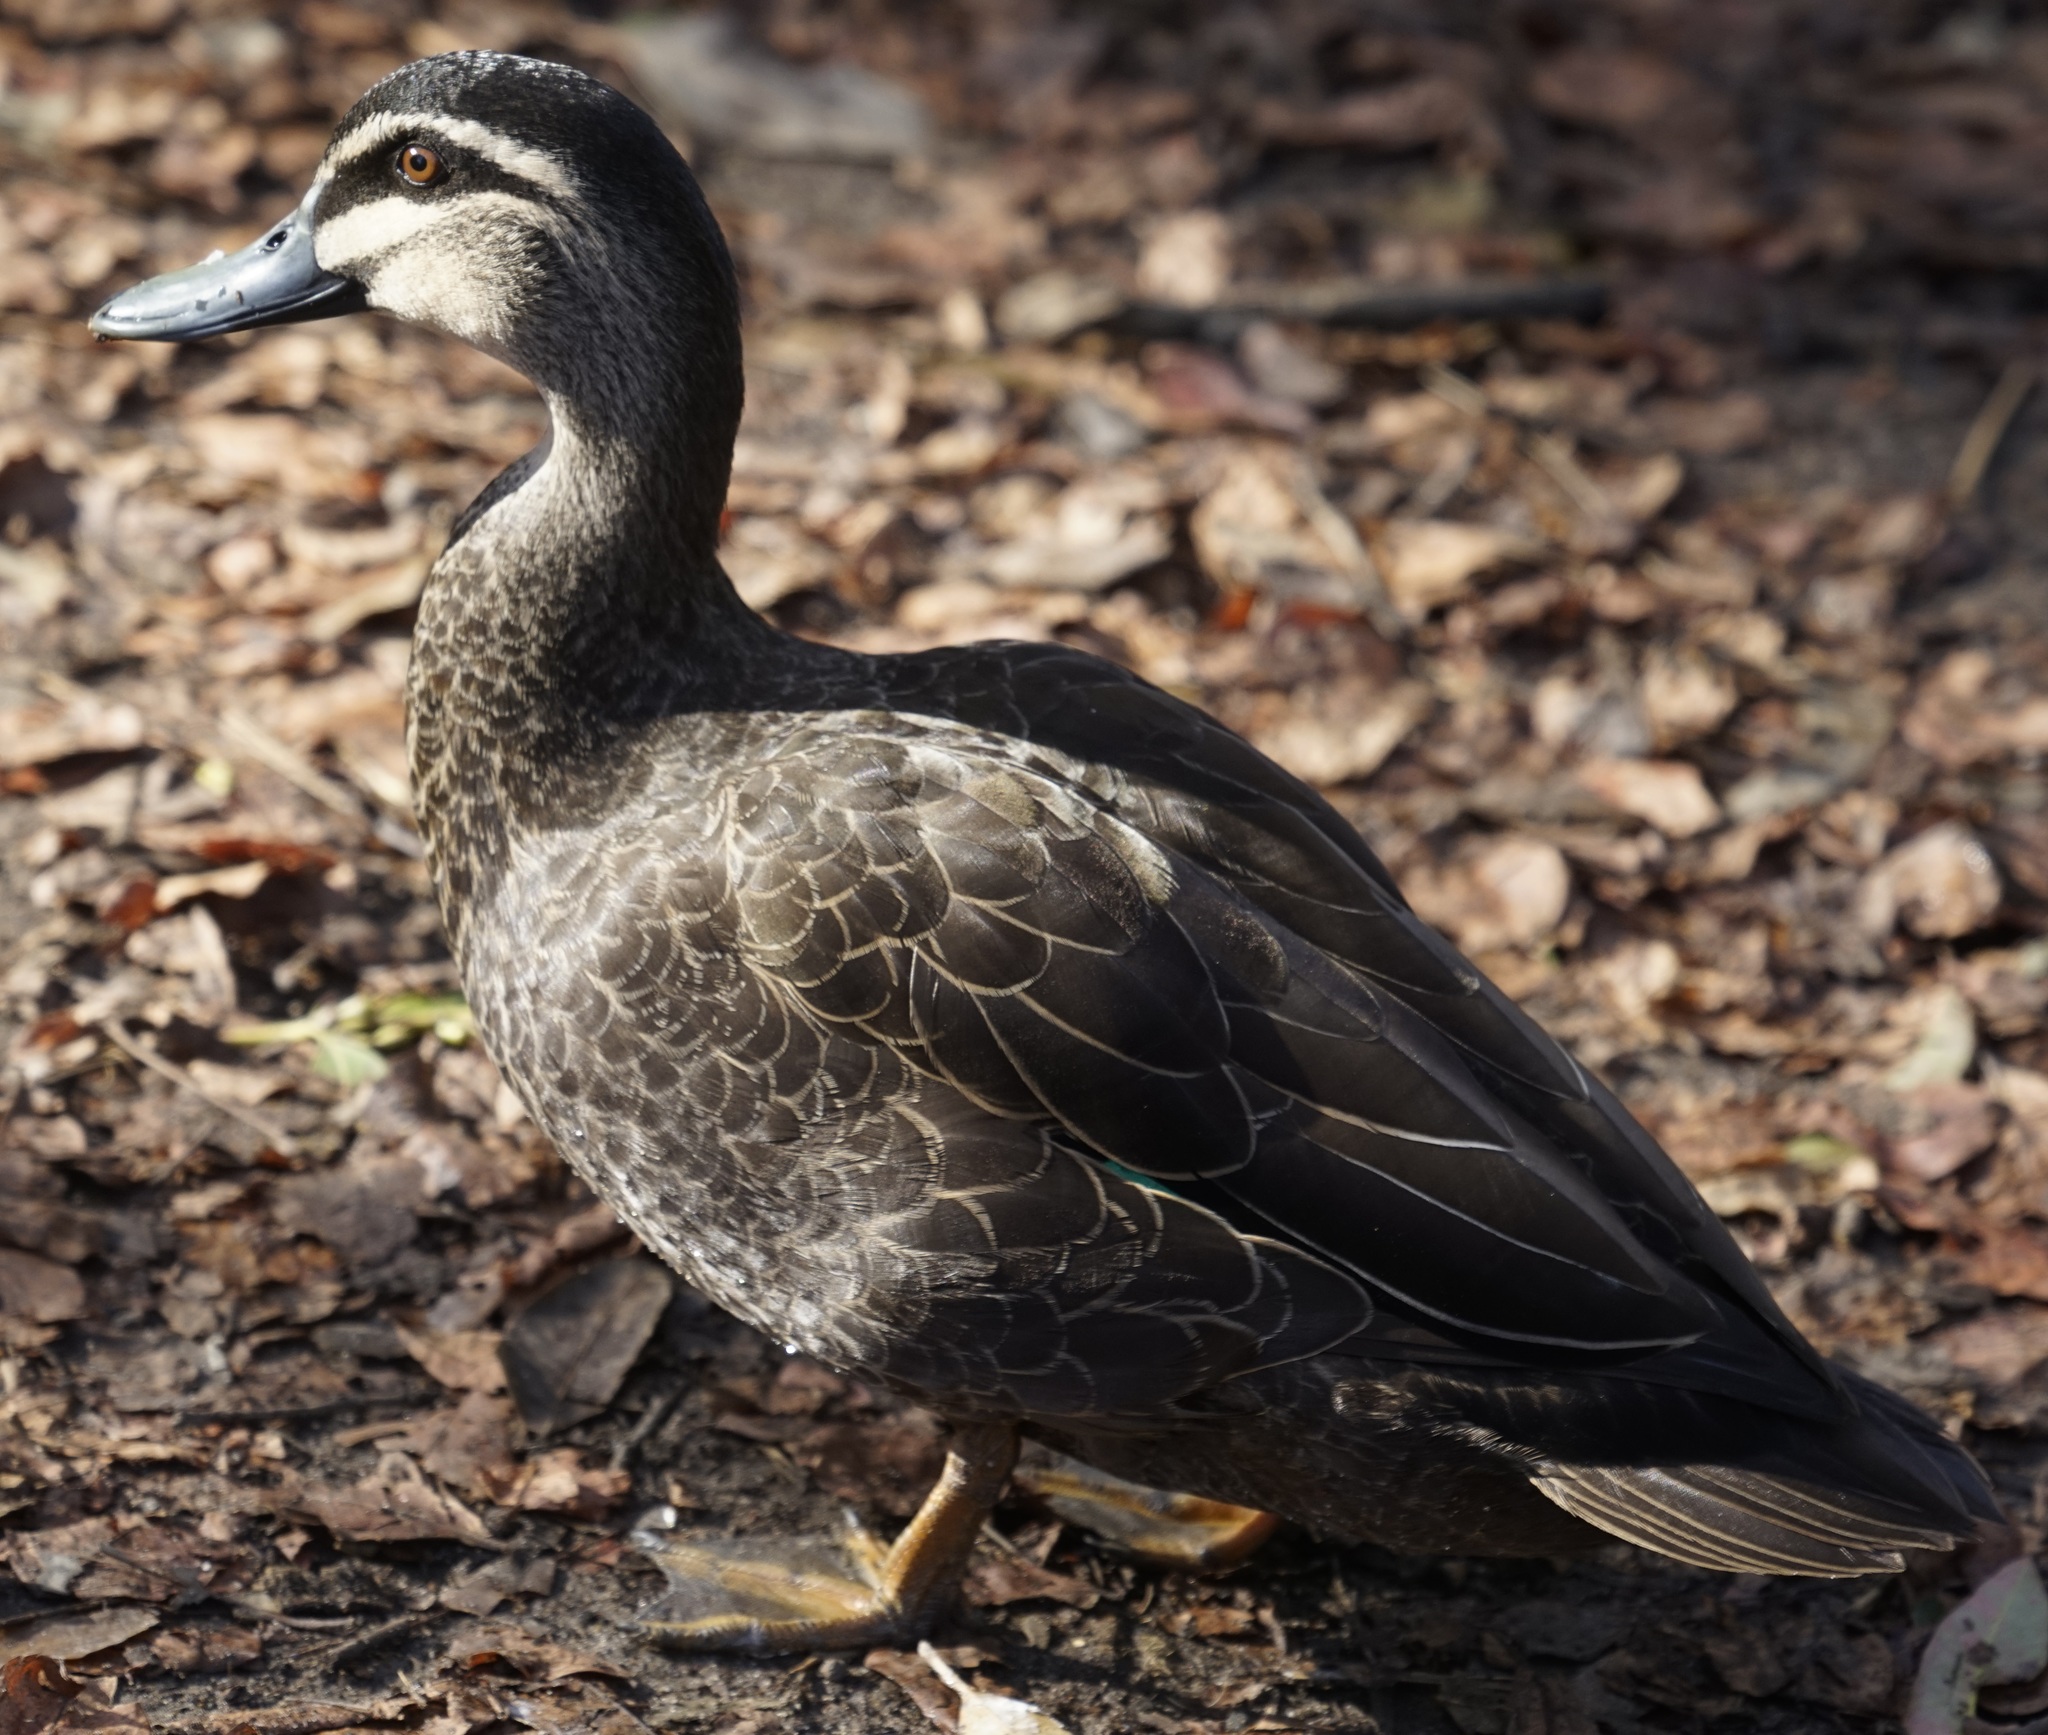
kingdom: Animalia
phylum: Chordata
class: Aves
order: Anseriformes
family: Anatidae
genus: Anas
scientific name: Anas superciliosa
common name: Pacific black duck
